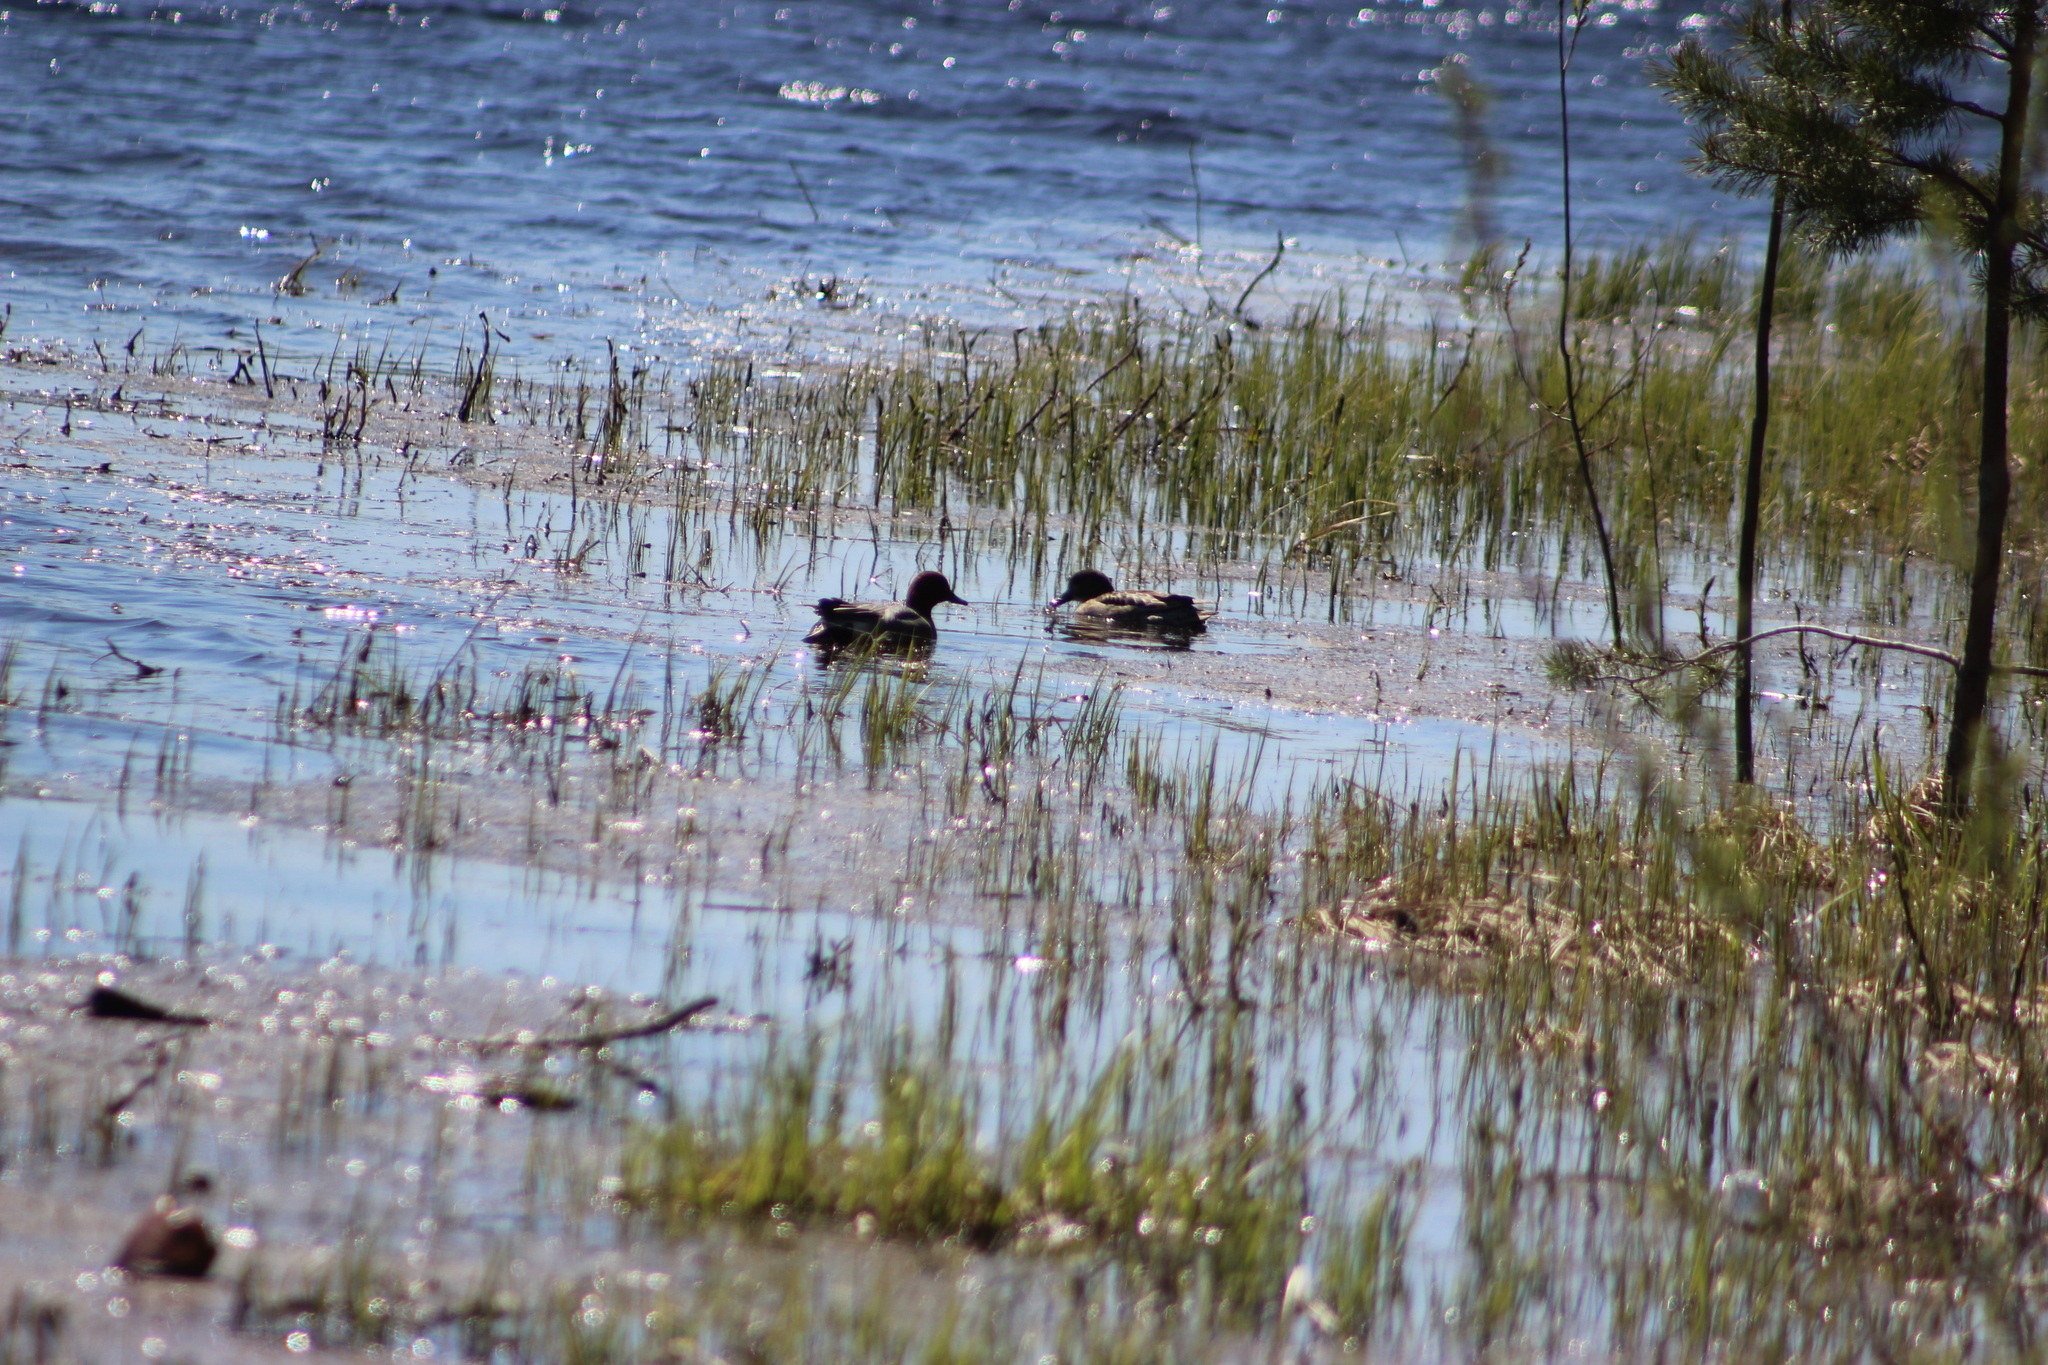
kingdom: Animalia
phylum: Chordata
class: Aves
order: Anseriformes
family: Anatidae
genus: Mareca
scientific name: Mareca penelope
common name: Eurasian wigeon
